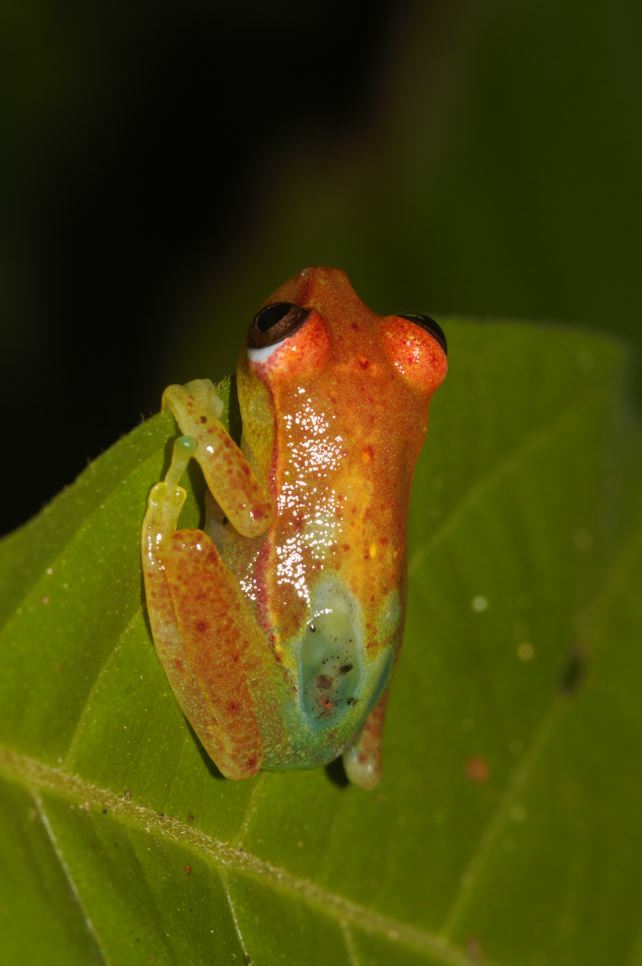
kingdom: Animalia
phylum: Chordata
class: Amphibia
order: Anura
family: Hylidae
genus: Boana
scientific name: Boana punctata
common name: Polka-dot treefrog
